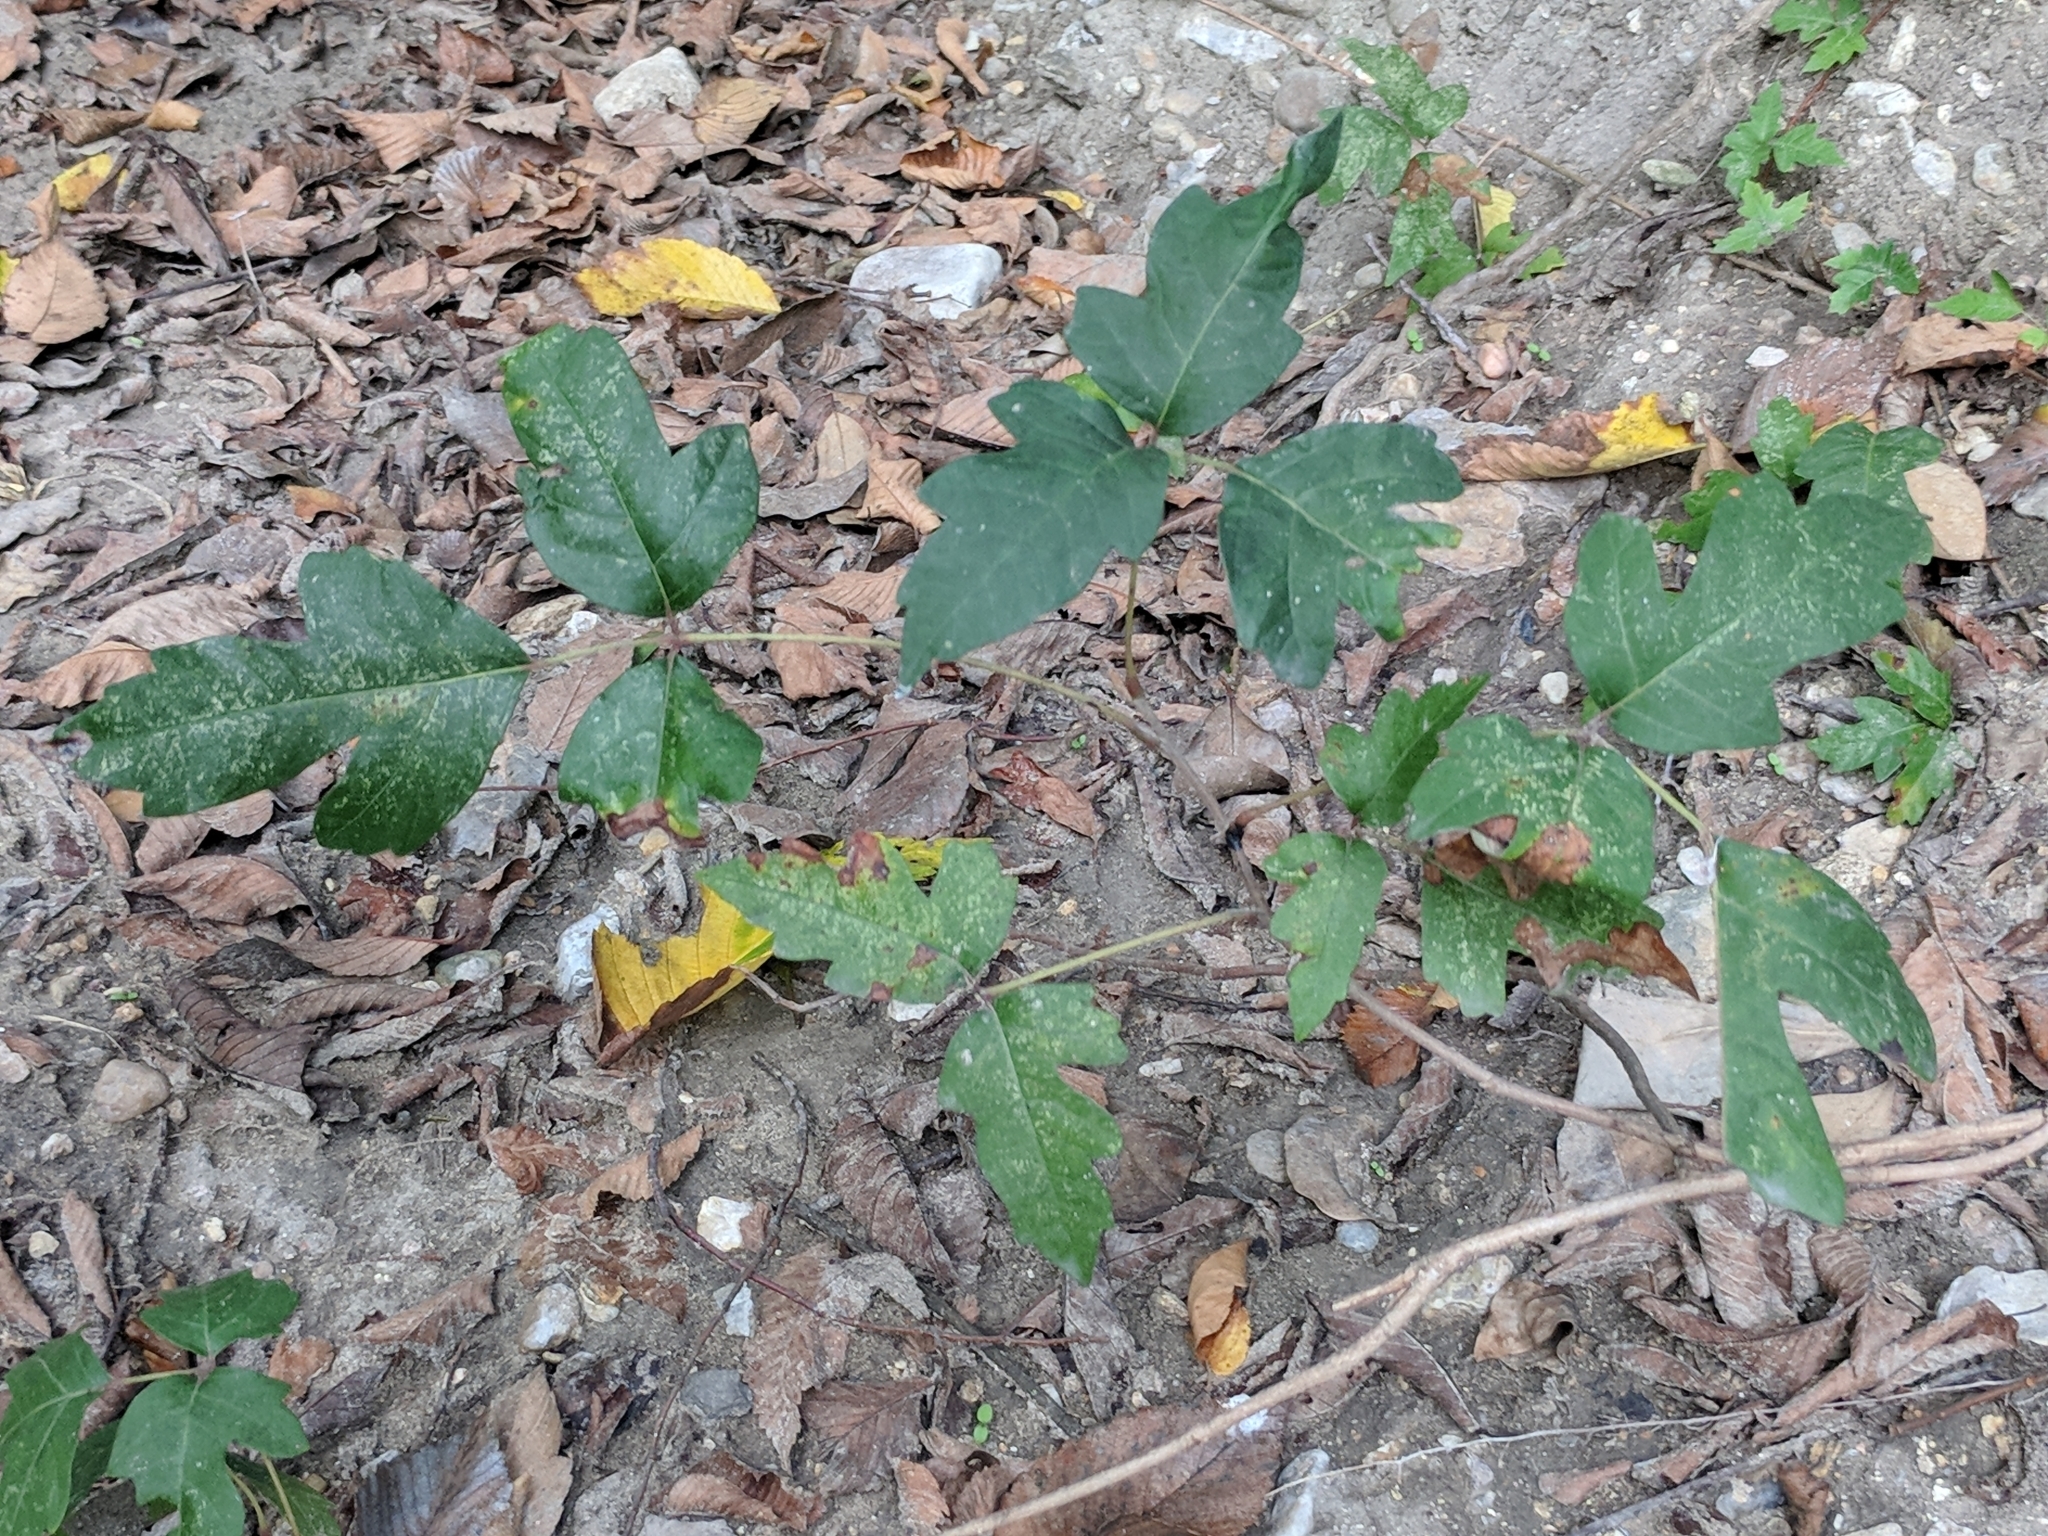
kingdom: Plantae
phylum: Tracheophyta
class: Magnoliopsida
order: Sapindales
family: Anacardiaceae
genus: Toxicodendron
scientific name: Toxicodendron radicans
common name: Poison ivy
